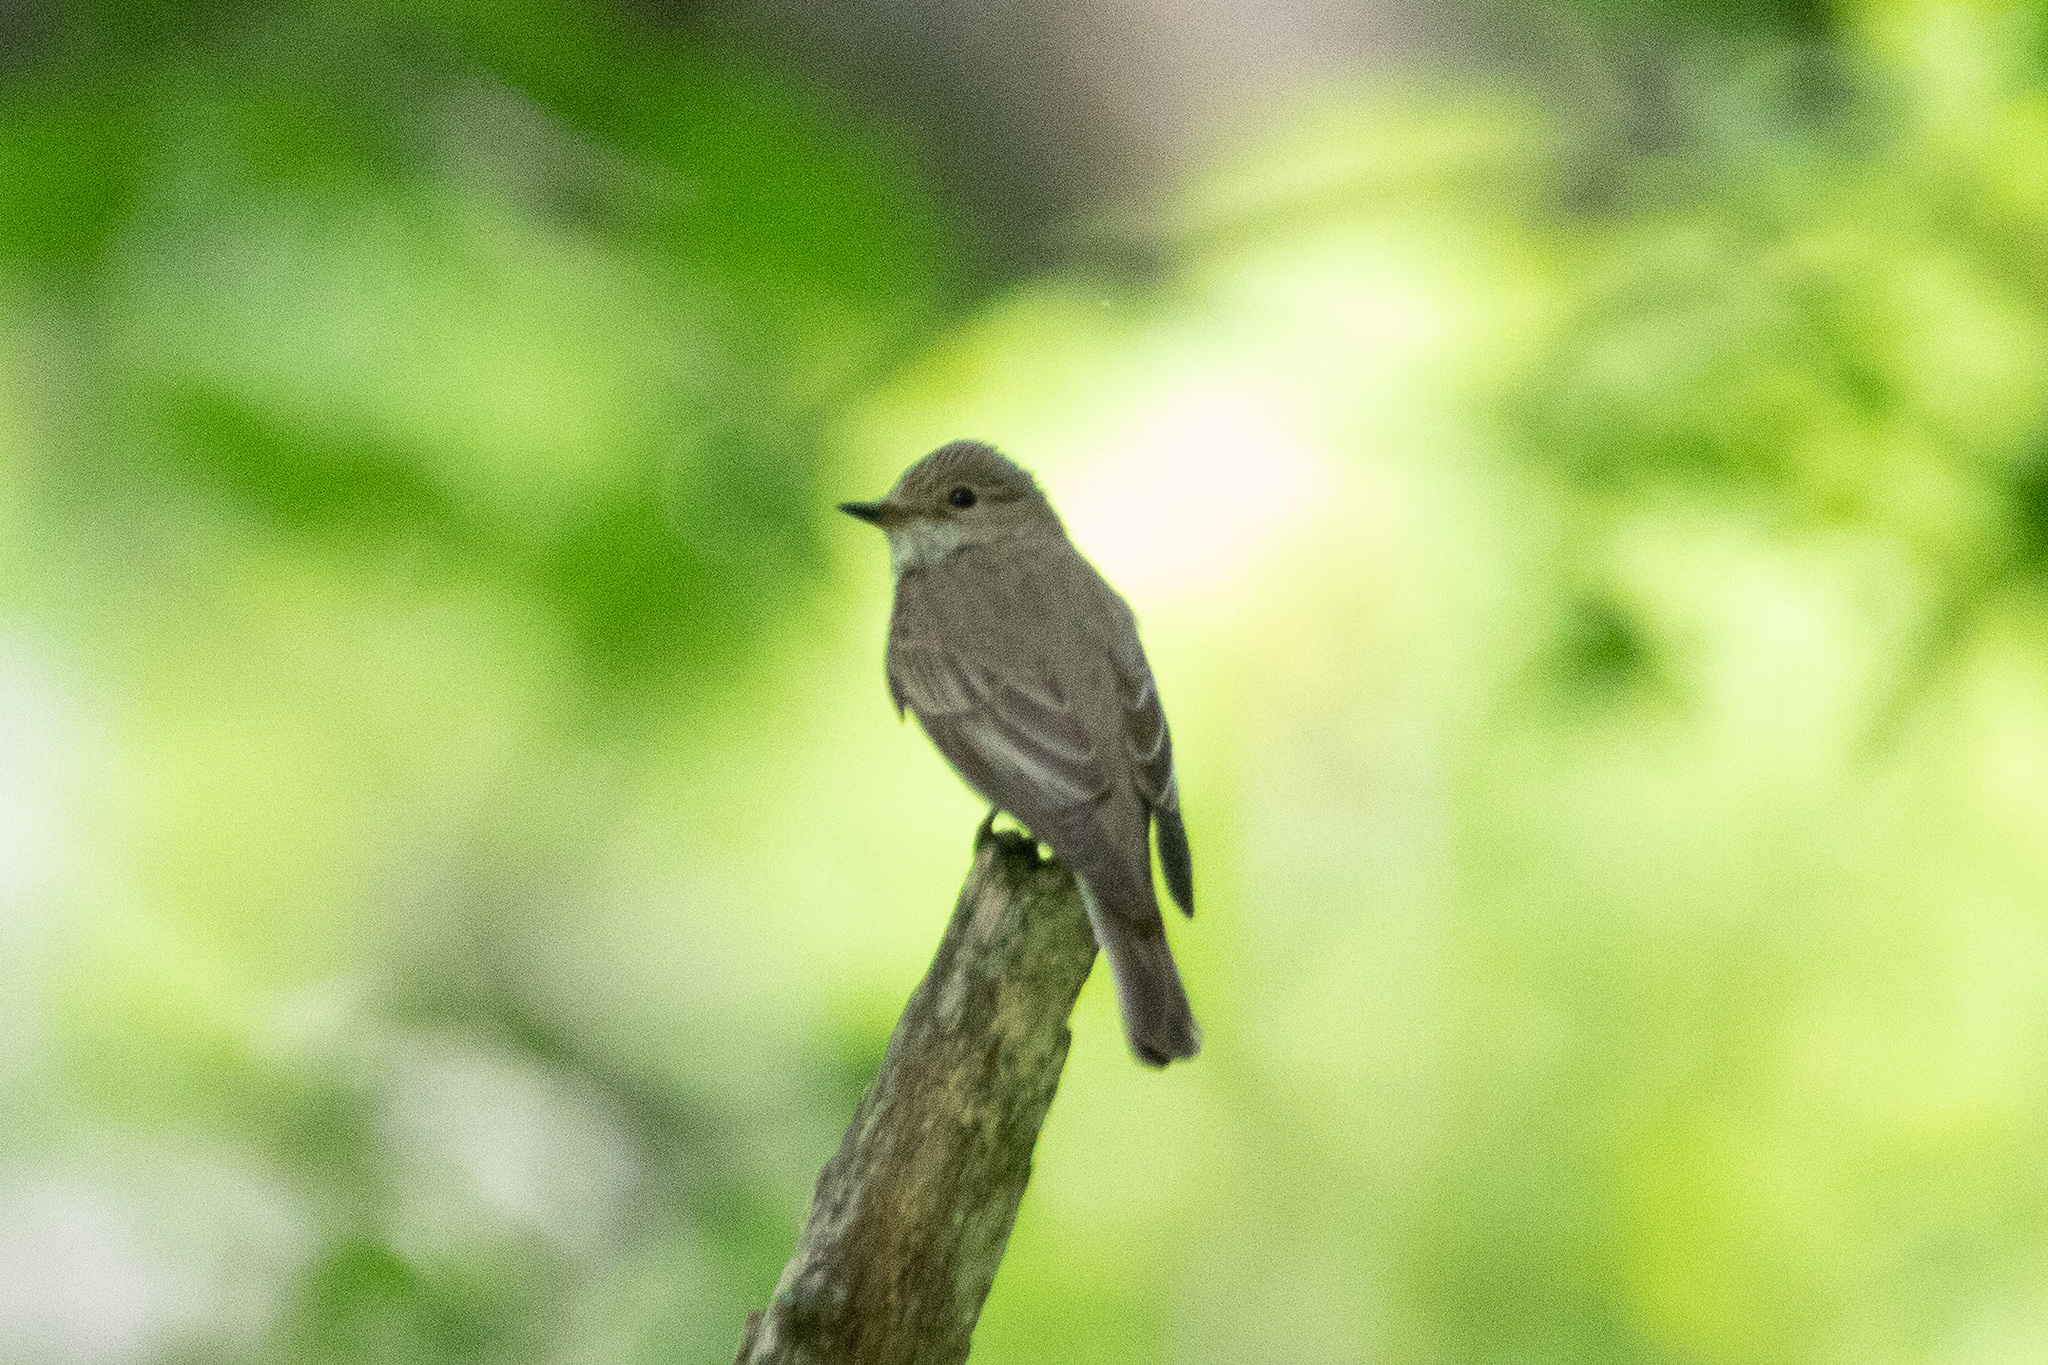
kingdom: Animalia
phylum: Chordata
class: Aves
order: Passeriformes
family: Muscicapidae
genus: Muscicapa
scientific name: Muscicapa striata
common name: Spotted flycatcher
